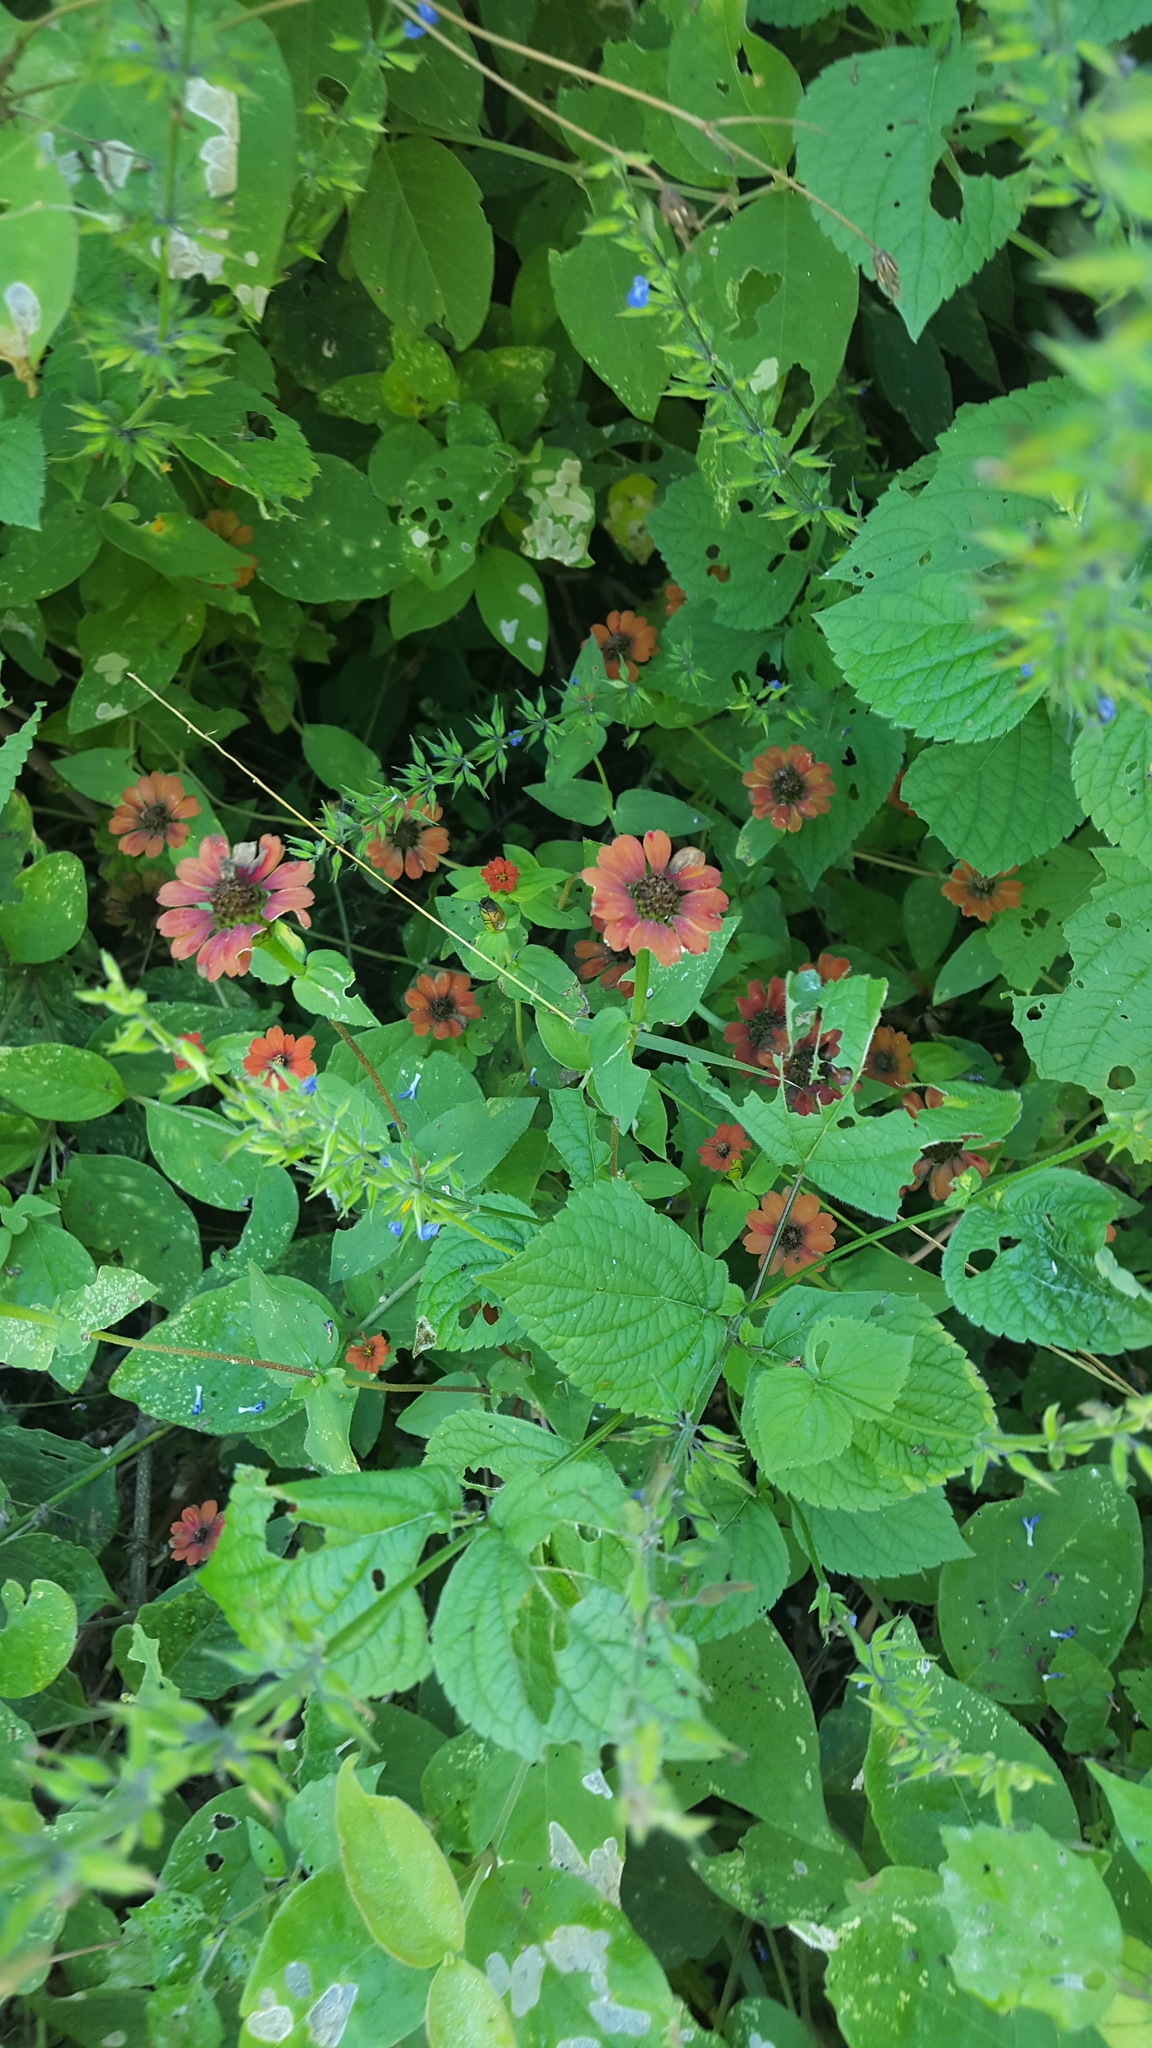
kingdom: Plantae
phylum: Tracheophyta
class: Magnoliopsida
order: Asterales
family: Asteraceae
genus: Zinnia
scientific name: Zinnia peruviana
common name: Peruvian zinnia
